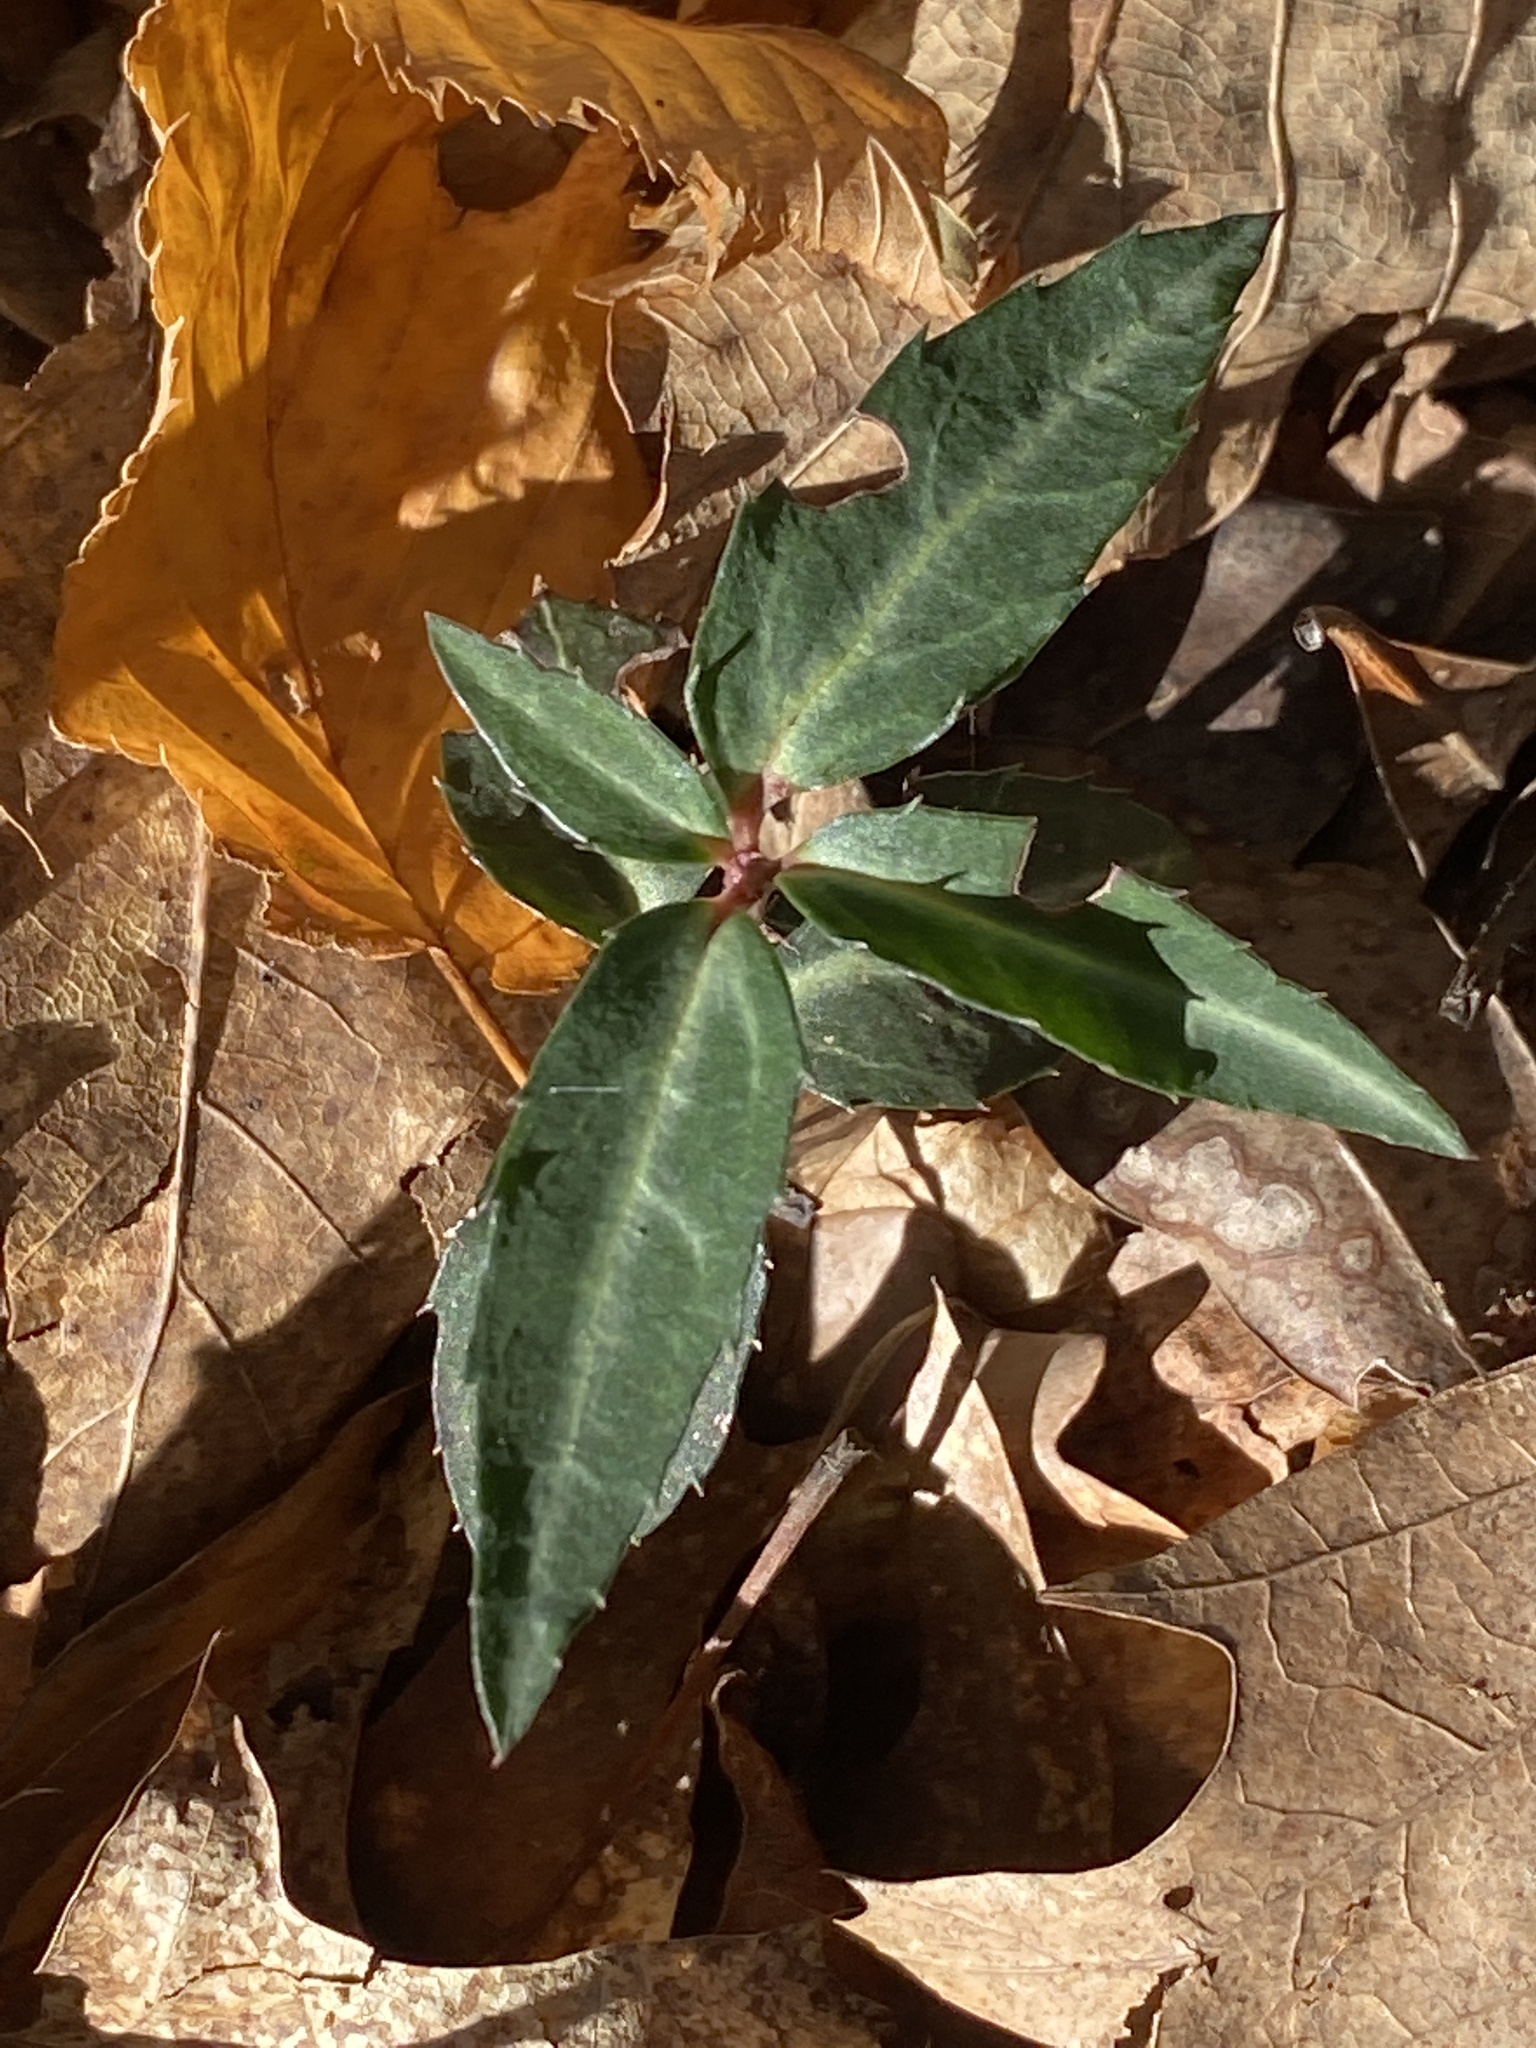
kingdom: Plantae
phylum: Tracheophyta
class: Magnoliopsida
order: Ericales
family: Ericaceae
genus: Chimaphila
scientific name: Chimaphila maculata
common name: Spotted pipsissewa
